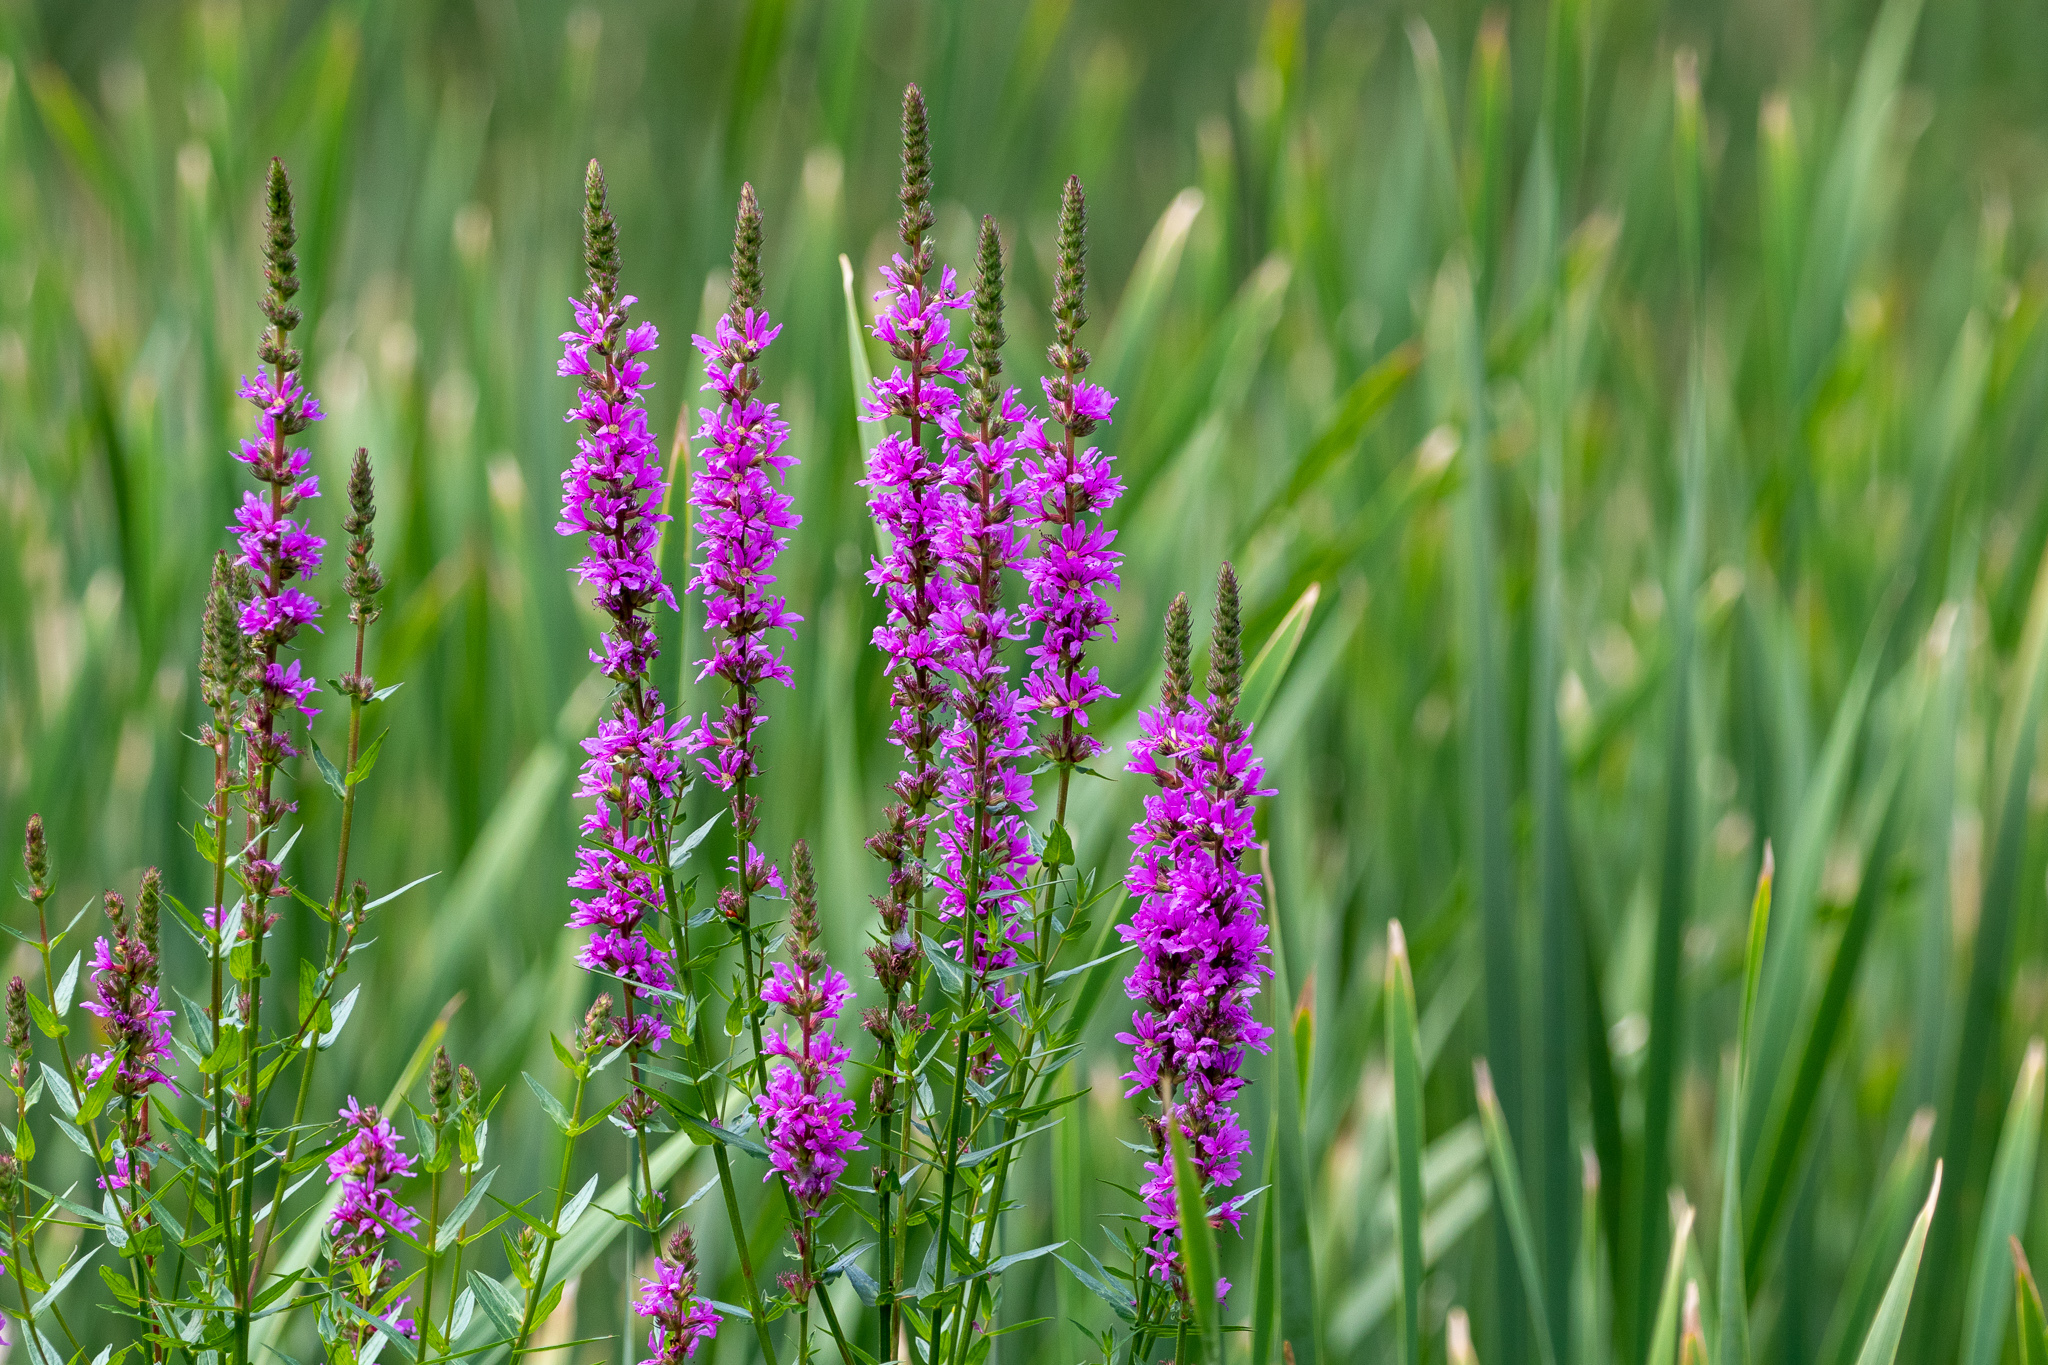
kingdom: Plantae
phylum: Tracheophyta
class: Magnoliopsida
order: Myrtales
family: Lythraceae
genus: Lythrum
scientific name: Lythrum salicaria
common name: Purple loosestrife
